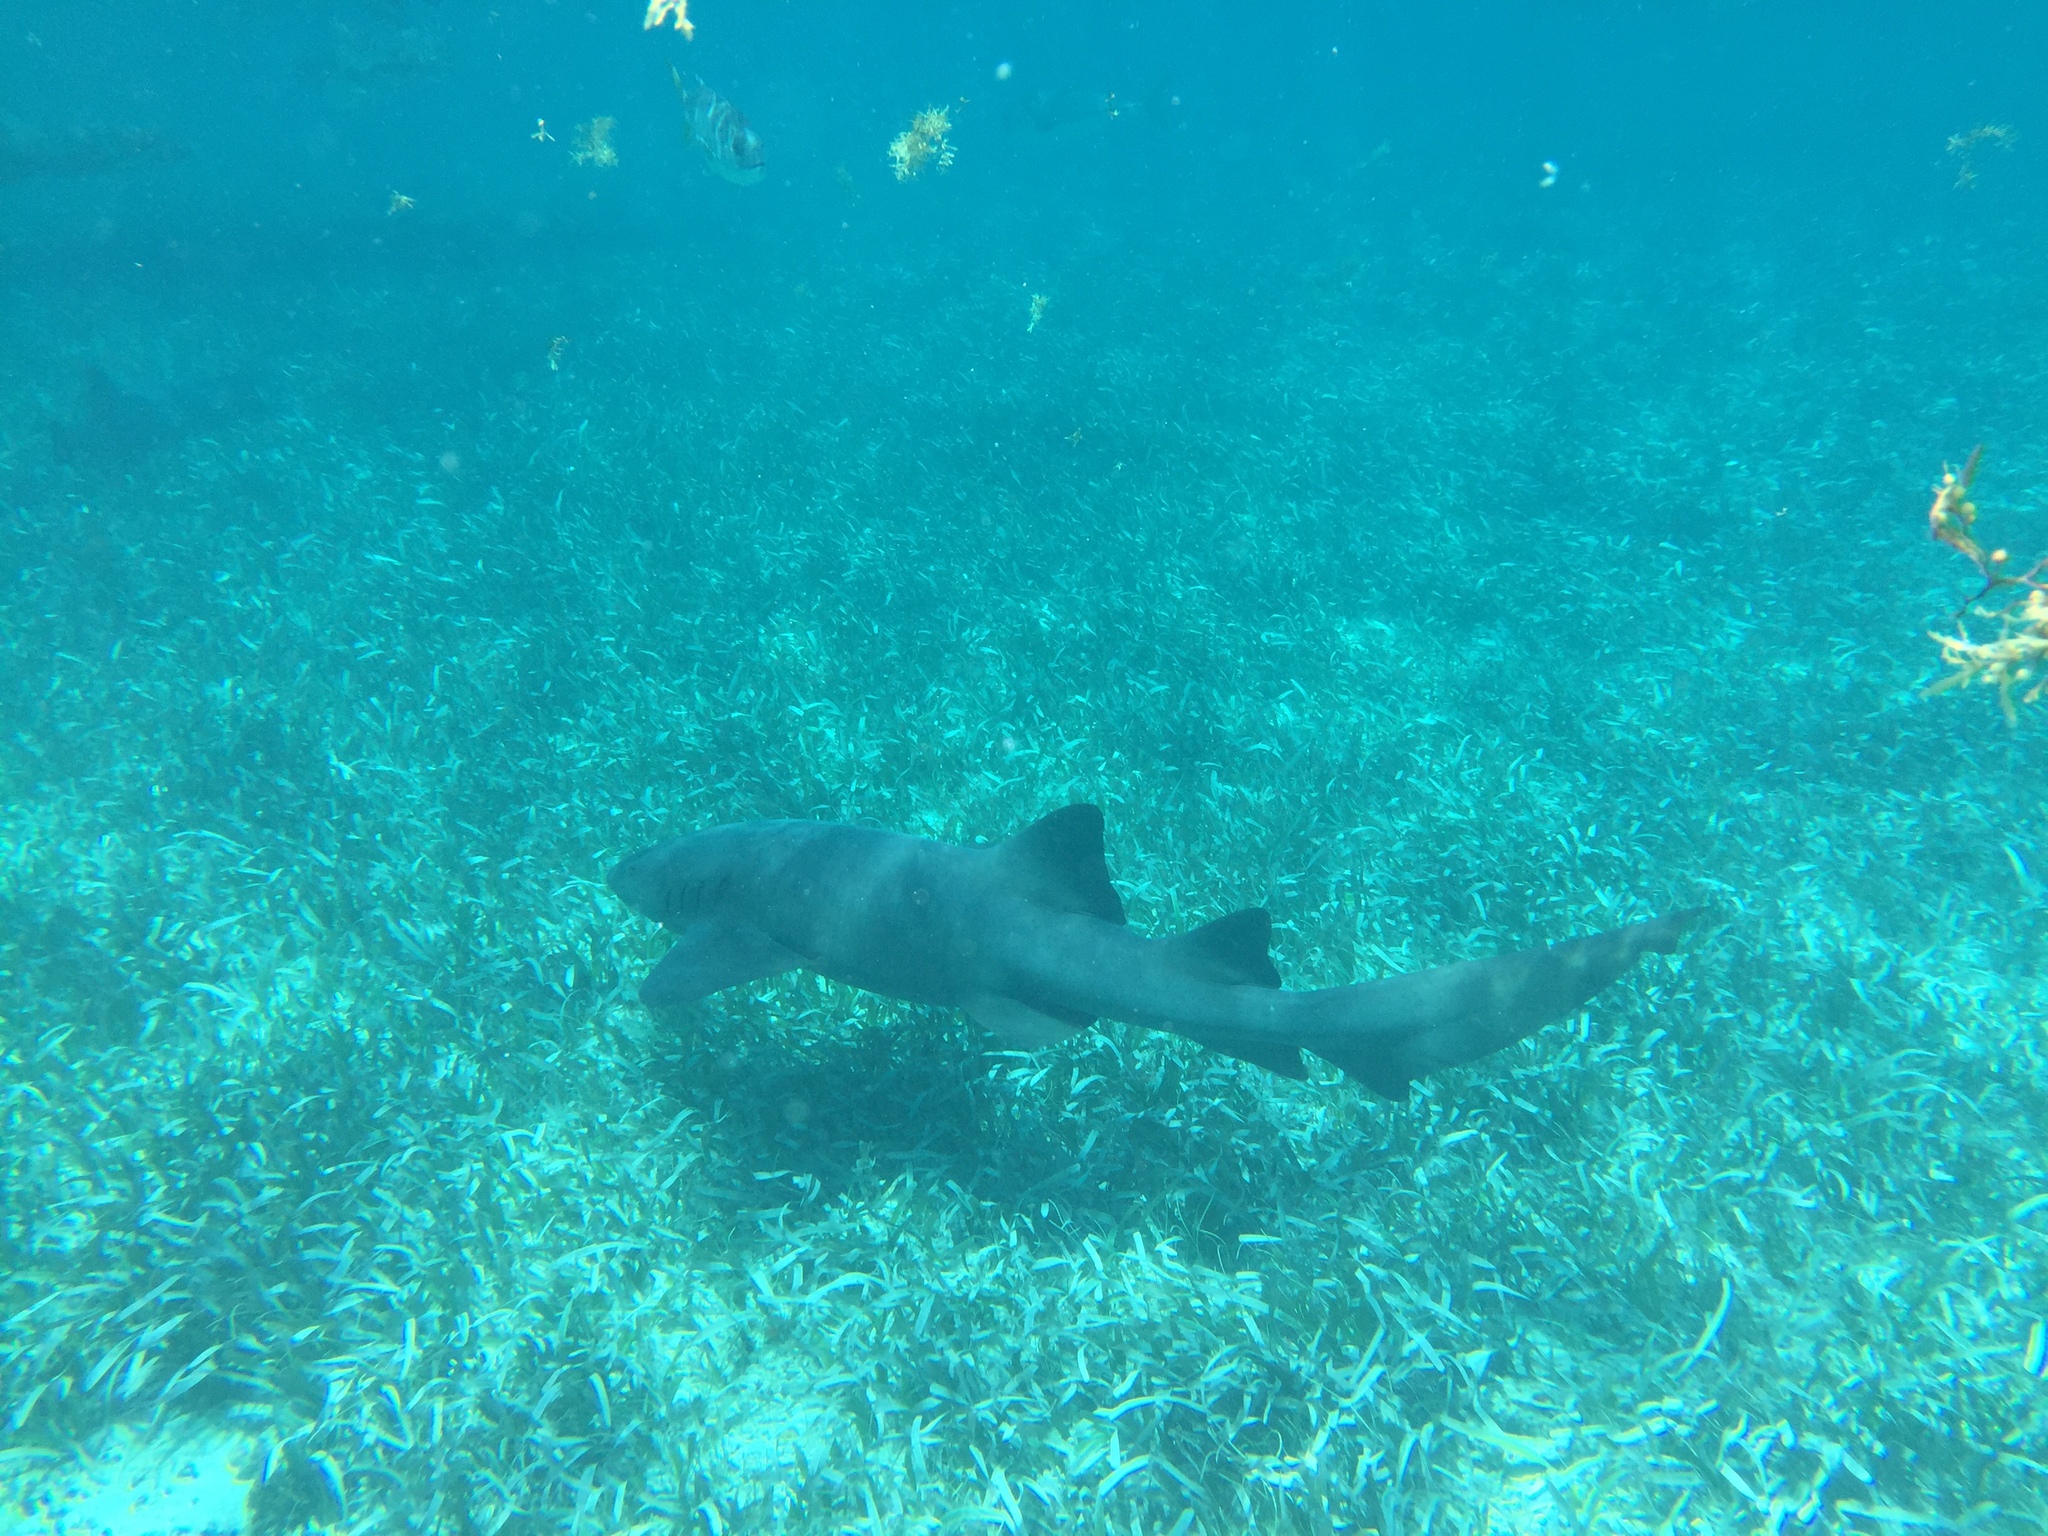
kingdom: Animalia
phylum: Chordata
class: Elasmobranchii
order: Orectolobiformes
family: Ginglymostomatidae
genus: Ginglymostoma
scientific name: Ginglymostoma cirratum
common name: Nurse shark
